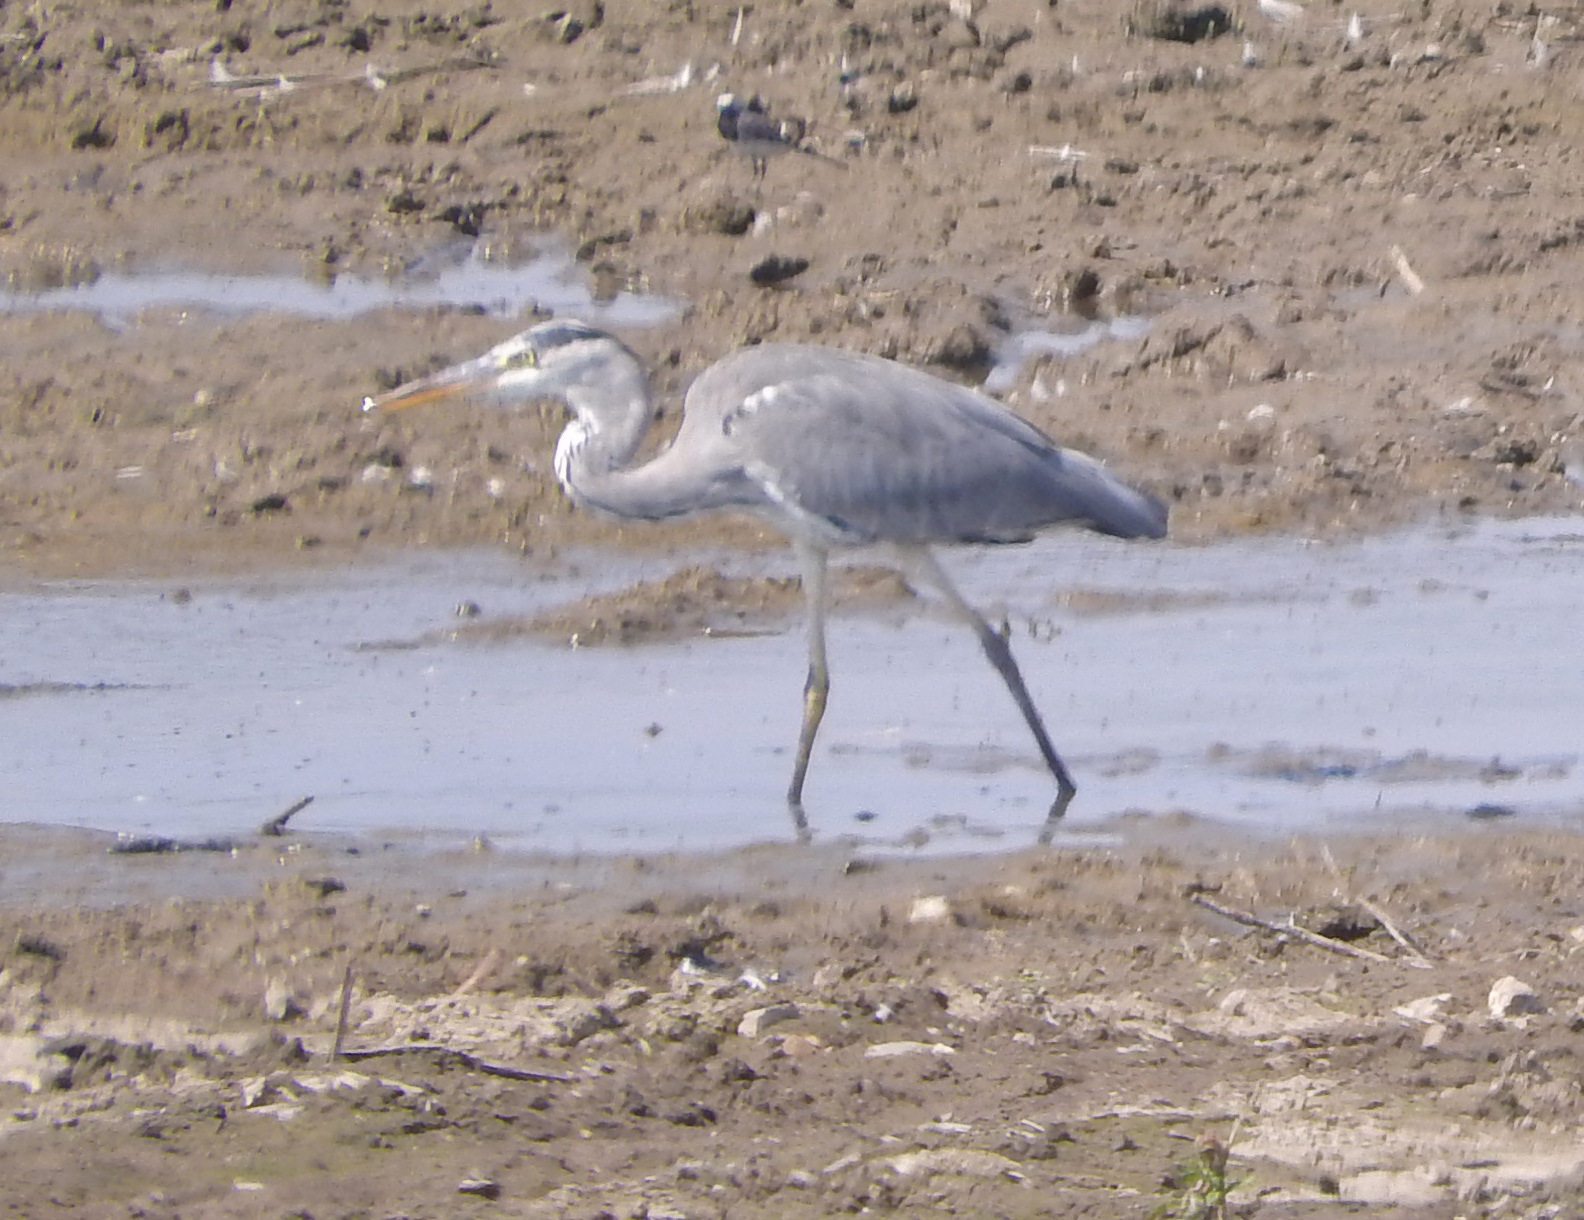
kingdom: Animalia
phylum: Chordata
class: Aves
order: Pelecaniformes
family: Ardeidae
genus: Ardea
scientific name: Ardea cinerea
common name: Grey heron
